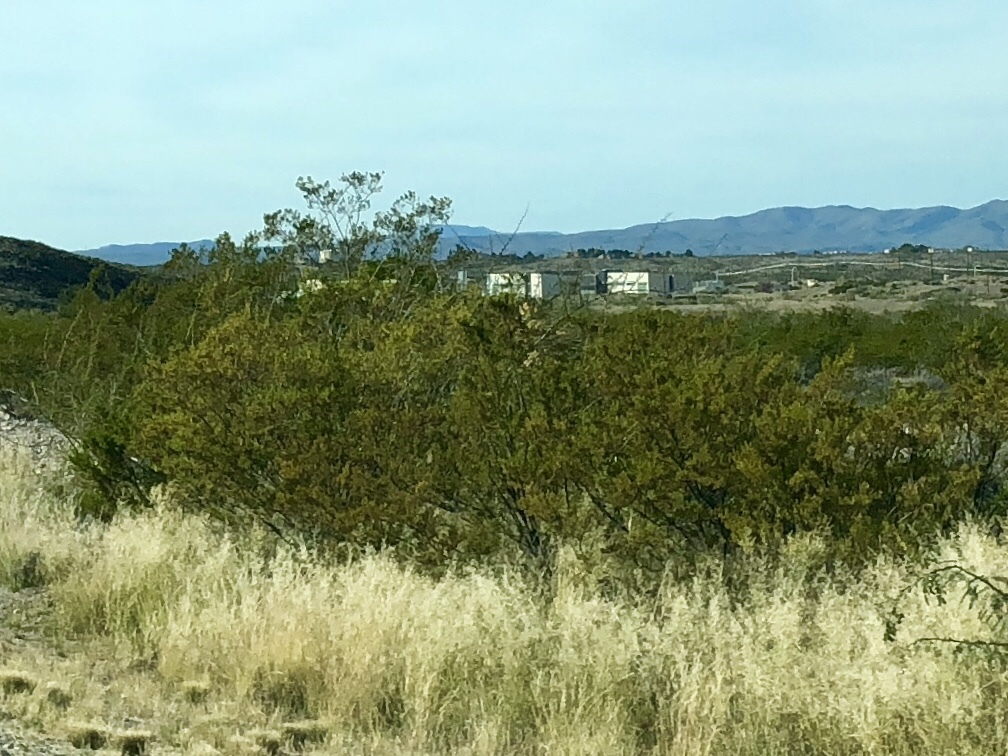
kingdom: Plantae
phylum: Tracheophyta
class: Magnoliopsida
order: Zygophyllales
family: Zygophyllaceae
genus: Larrea
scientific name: Larrea tridentata
